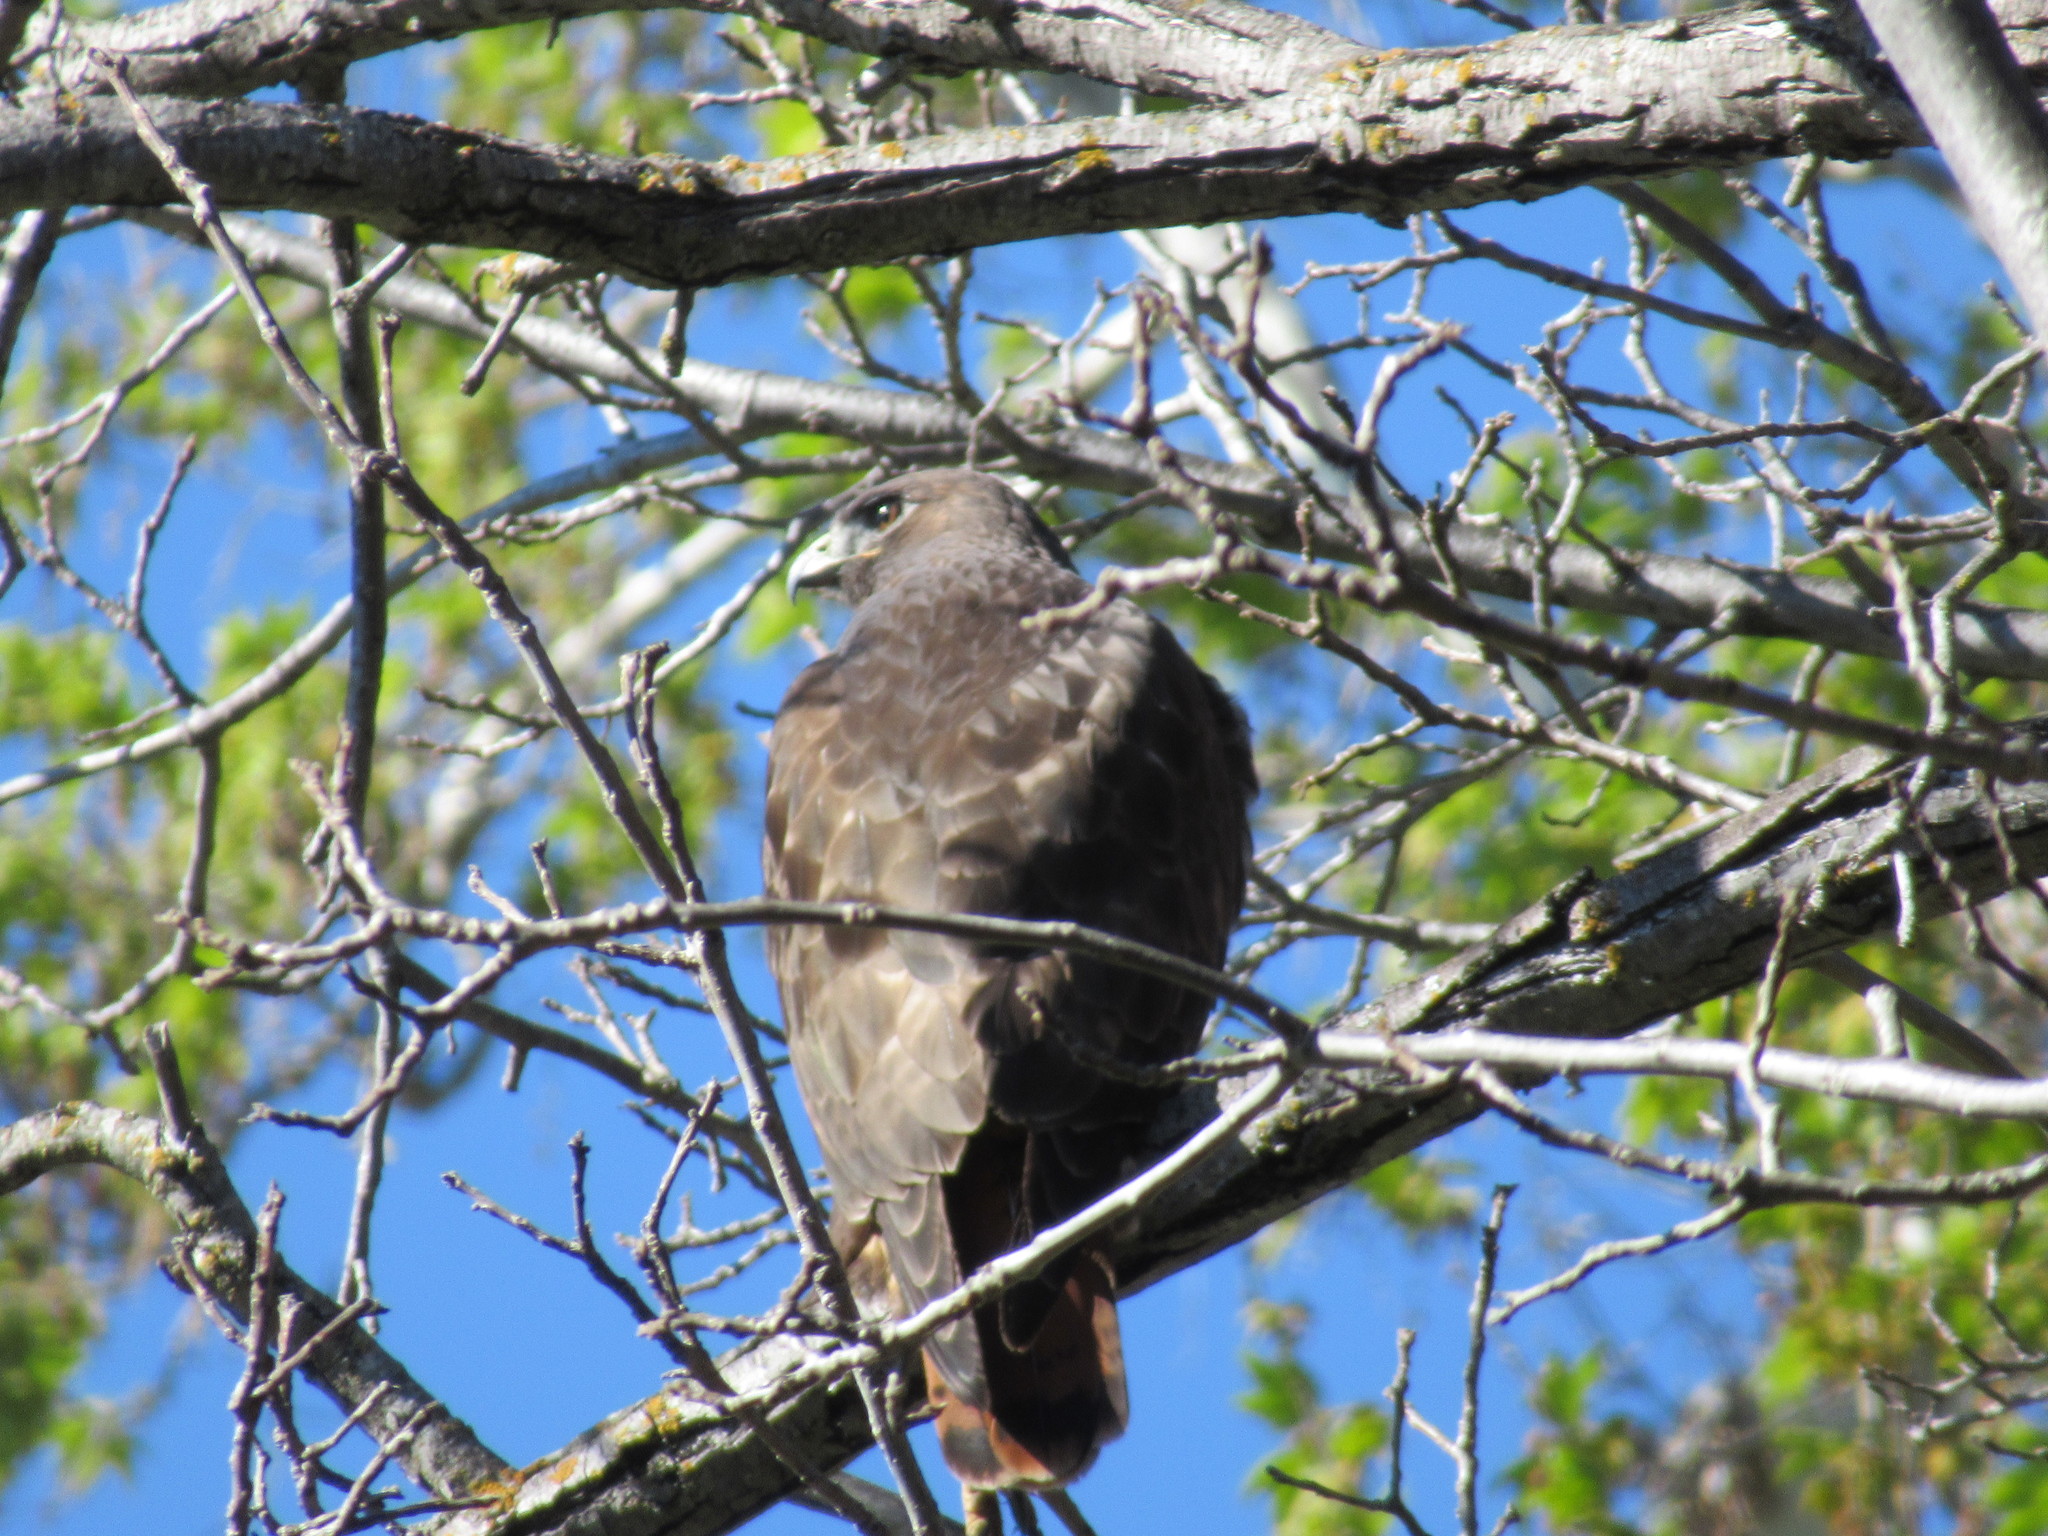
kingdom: Animalia
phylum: Chordata
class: Aves
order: Accipitriformes
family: Accipitridae
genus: Buteo
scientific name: Buteo jamaicensis
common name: Red-tailed hawk
